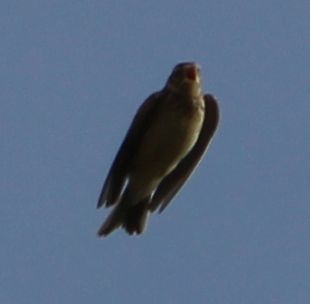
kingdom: Animalia
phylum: Chordata
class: Aves
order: Passeriformes
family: Alaudidae
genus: Alauda
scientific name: Alauda arvensis
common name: Eurasian skylark
